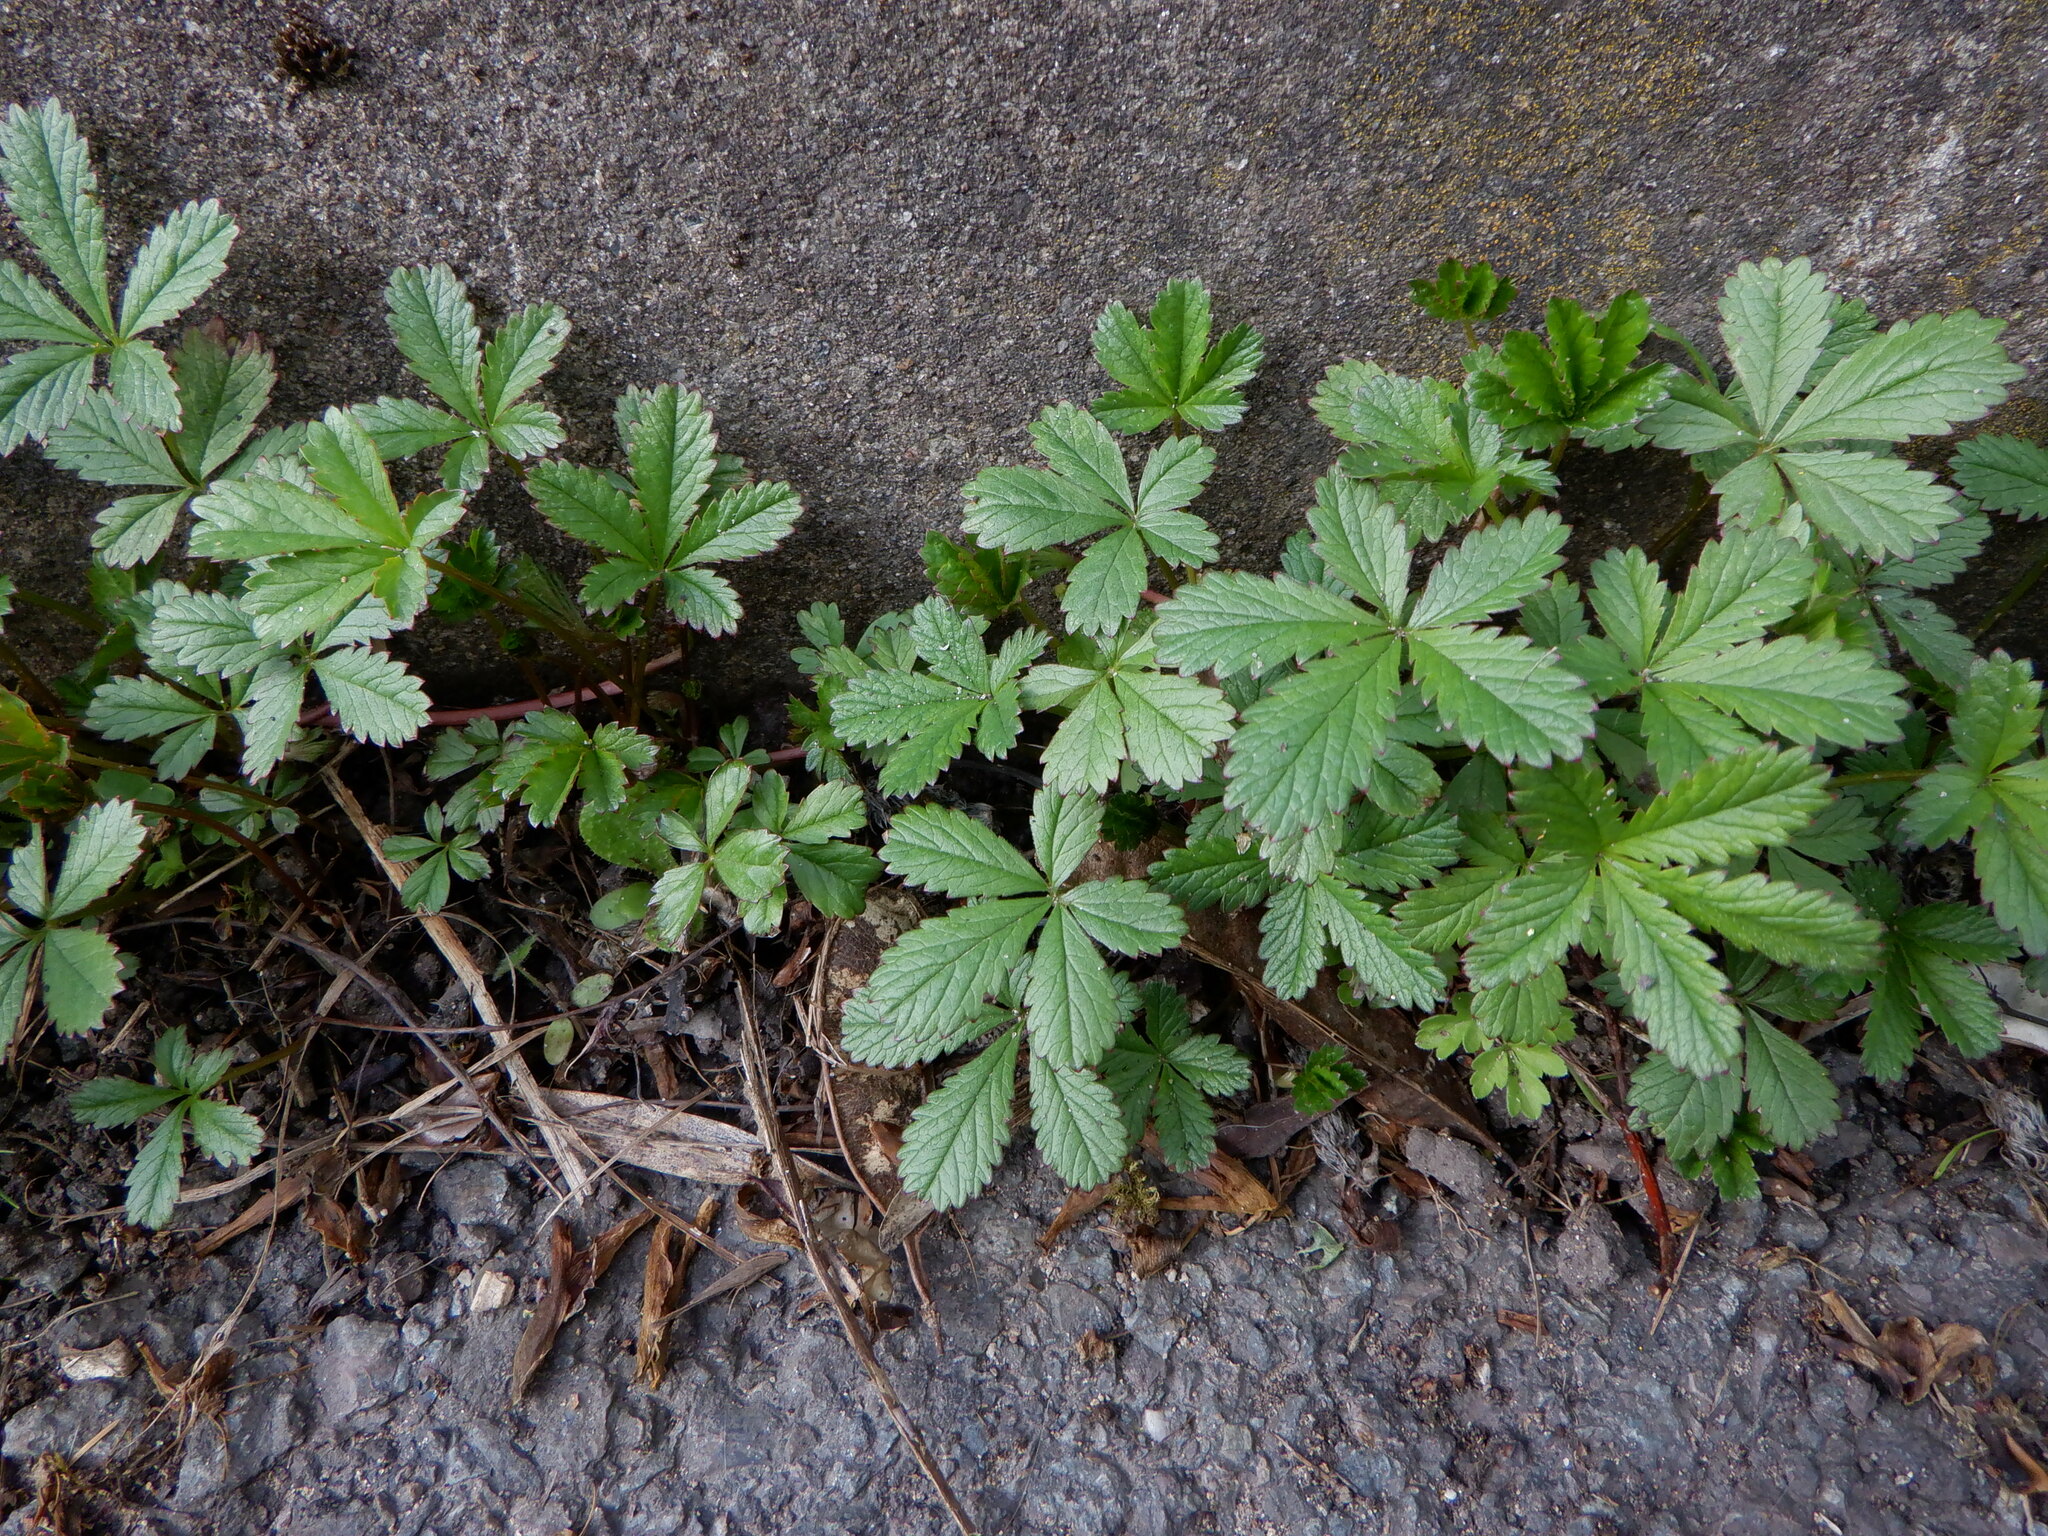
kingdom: Plantae
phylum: Tracheophyta
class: Magnoliopsida
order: Rosales
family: Rosaceae
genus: Potentilla
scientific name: Potentilla reptans
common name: Creeping cinquefoil
